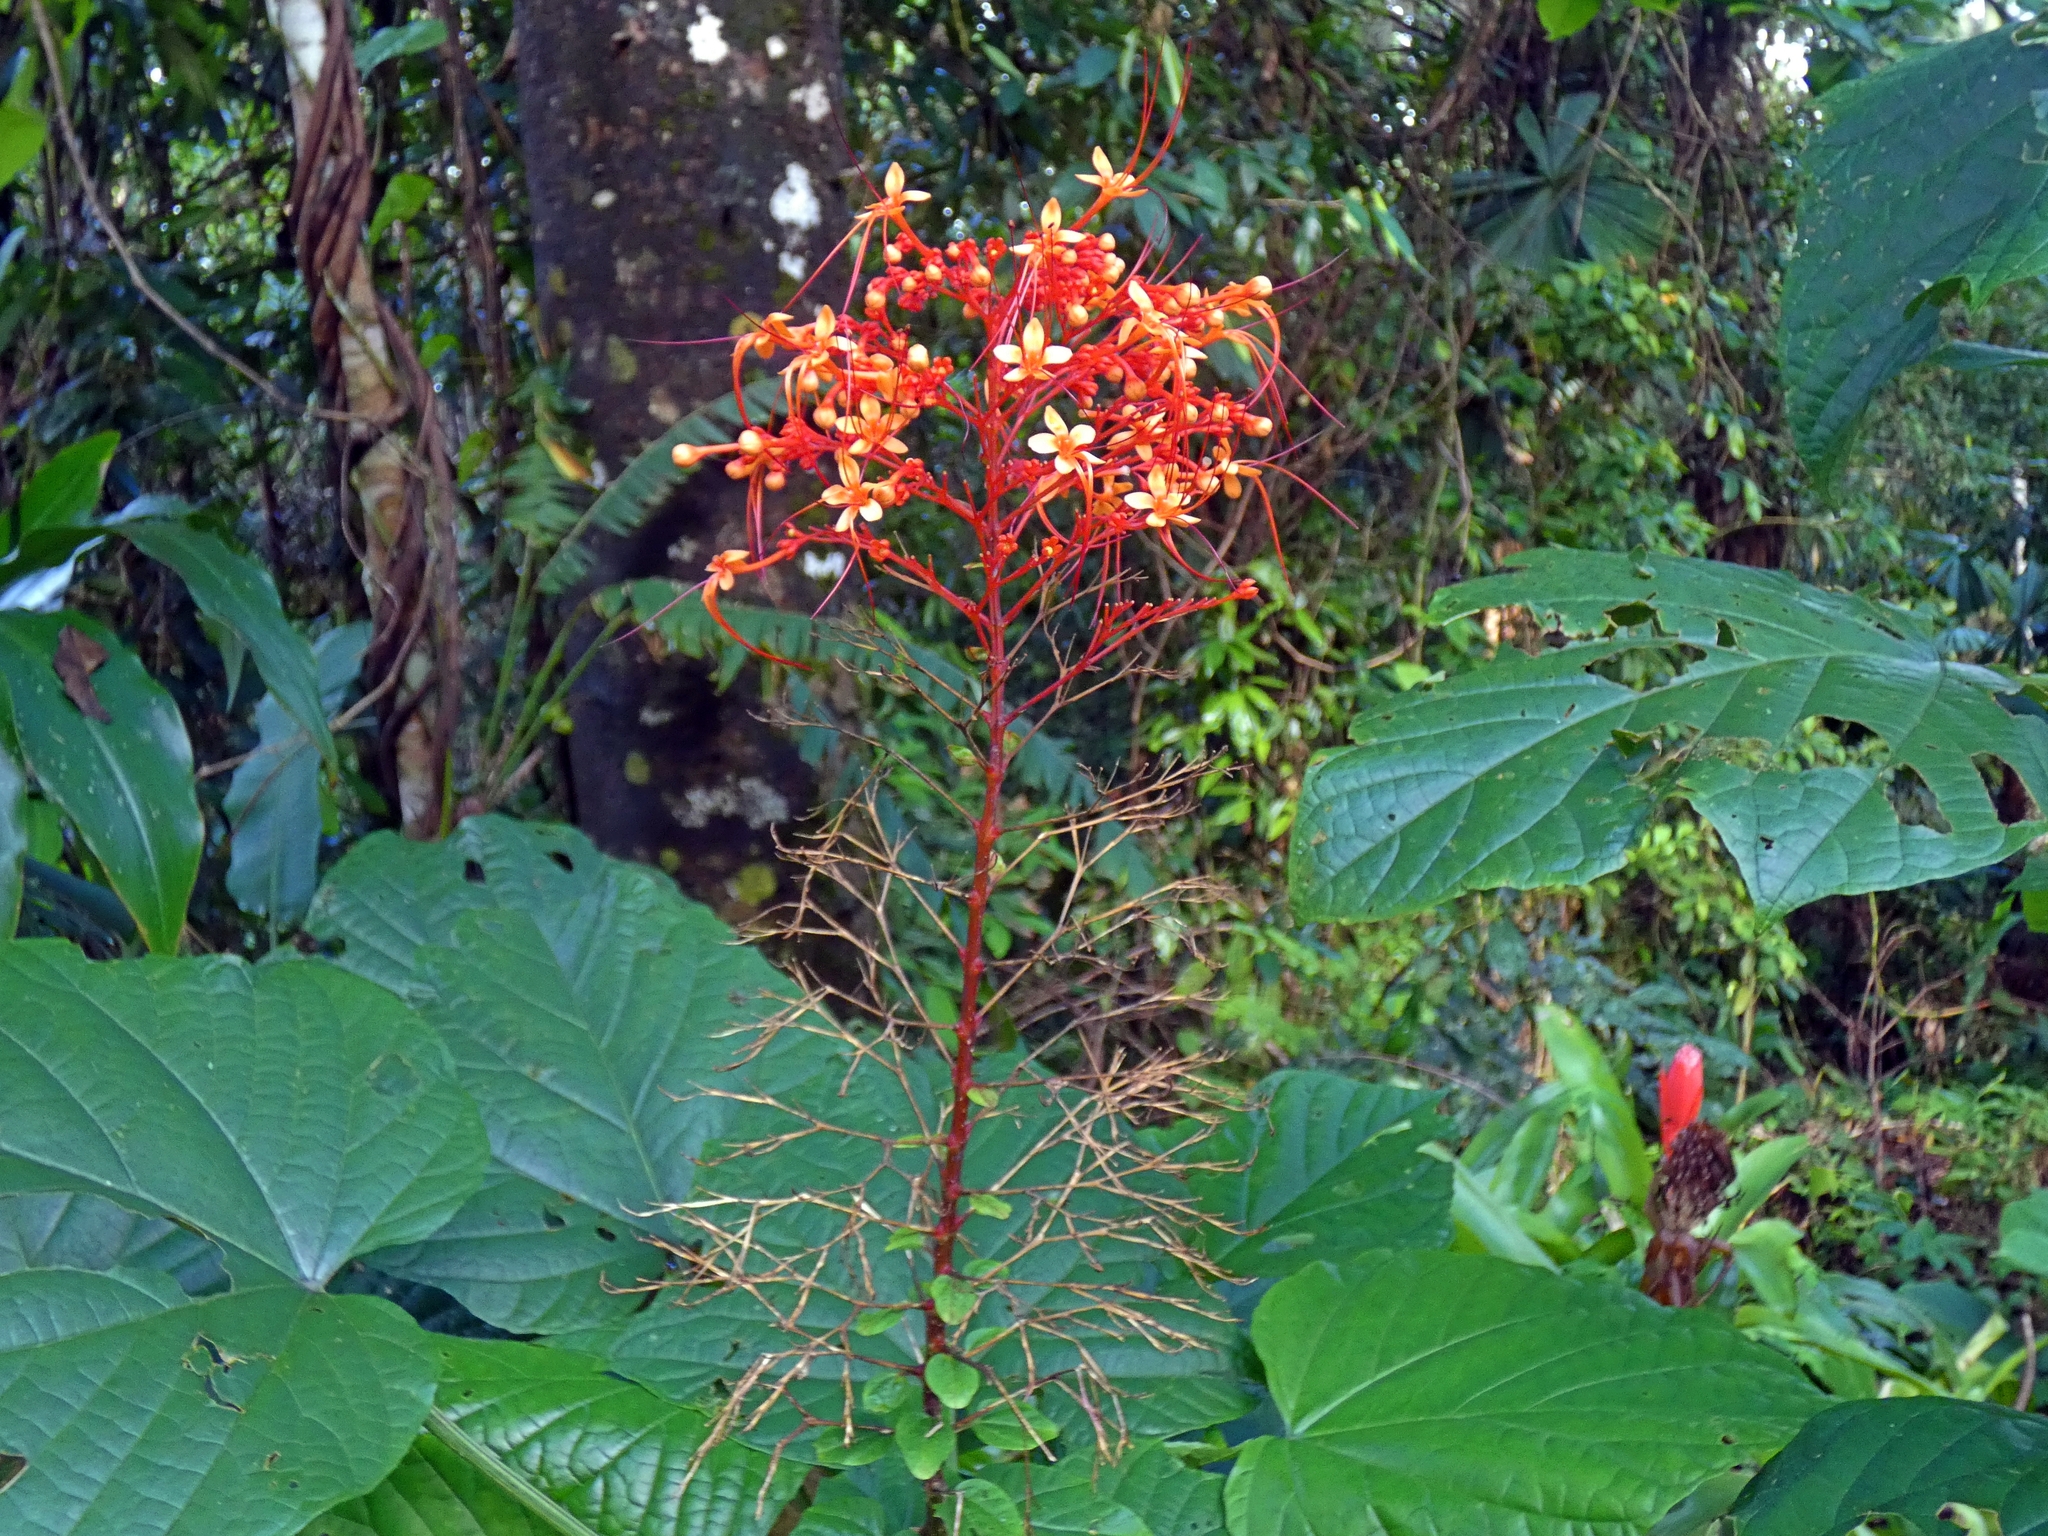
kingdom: Plantae
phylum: Tracheophyta
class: Magnoliopsida
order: Lamiales
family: Lamiaceae
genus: Clerodendrum
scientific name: Clerodendrum paniculatum
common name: Pagoda-flower
